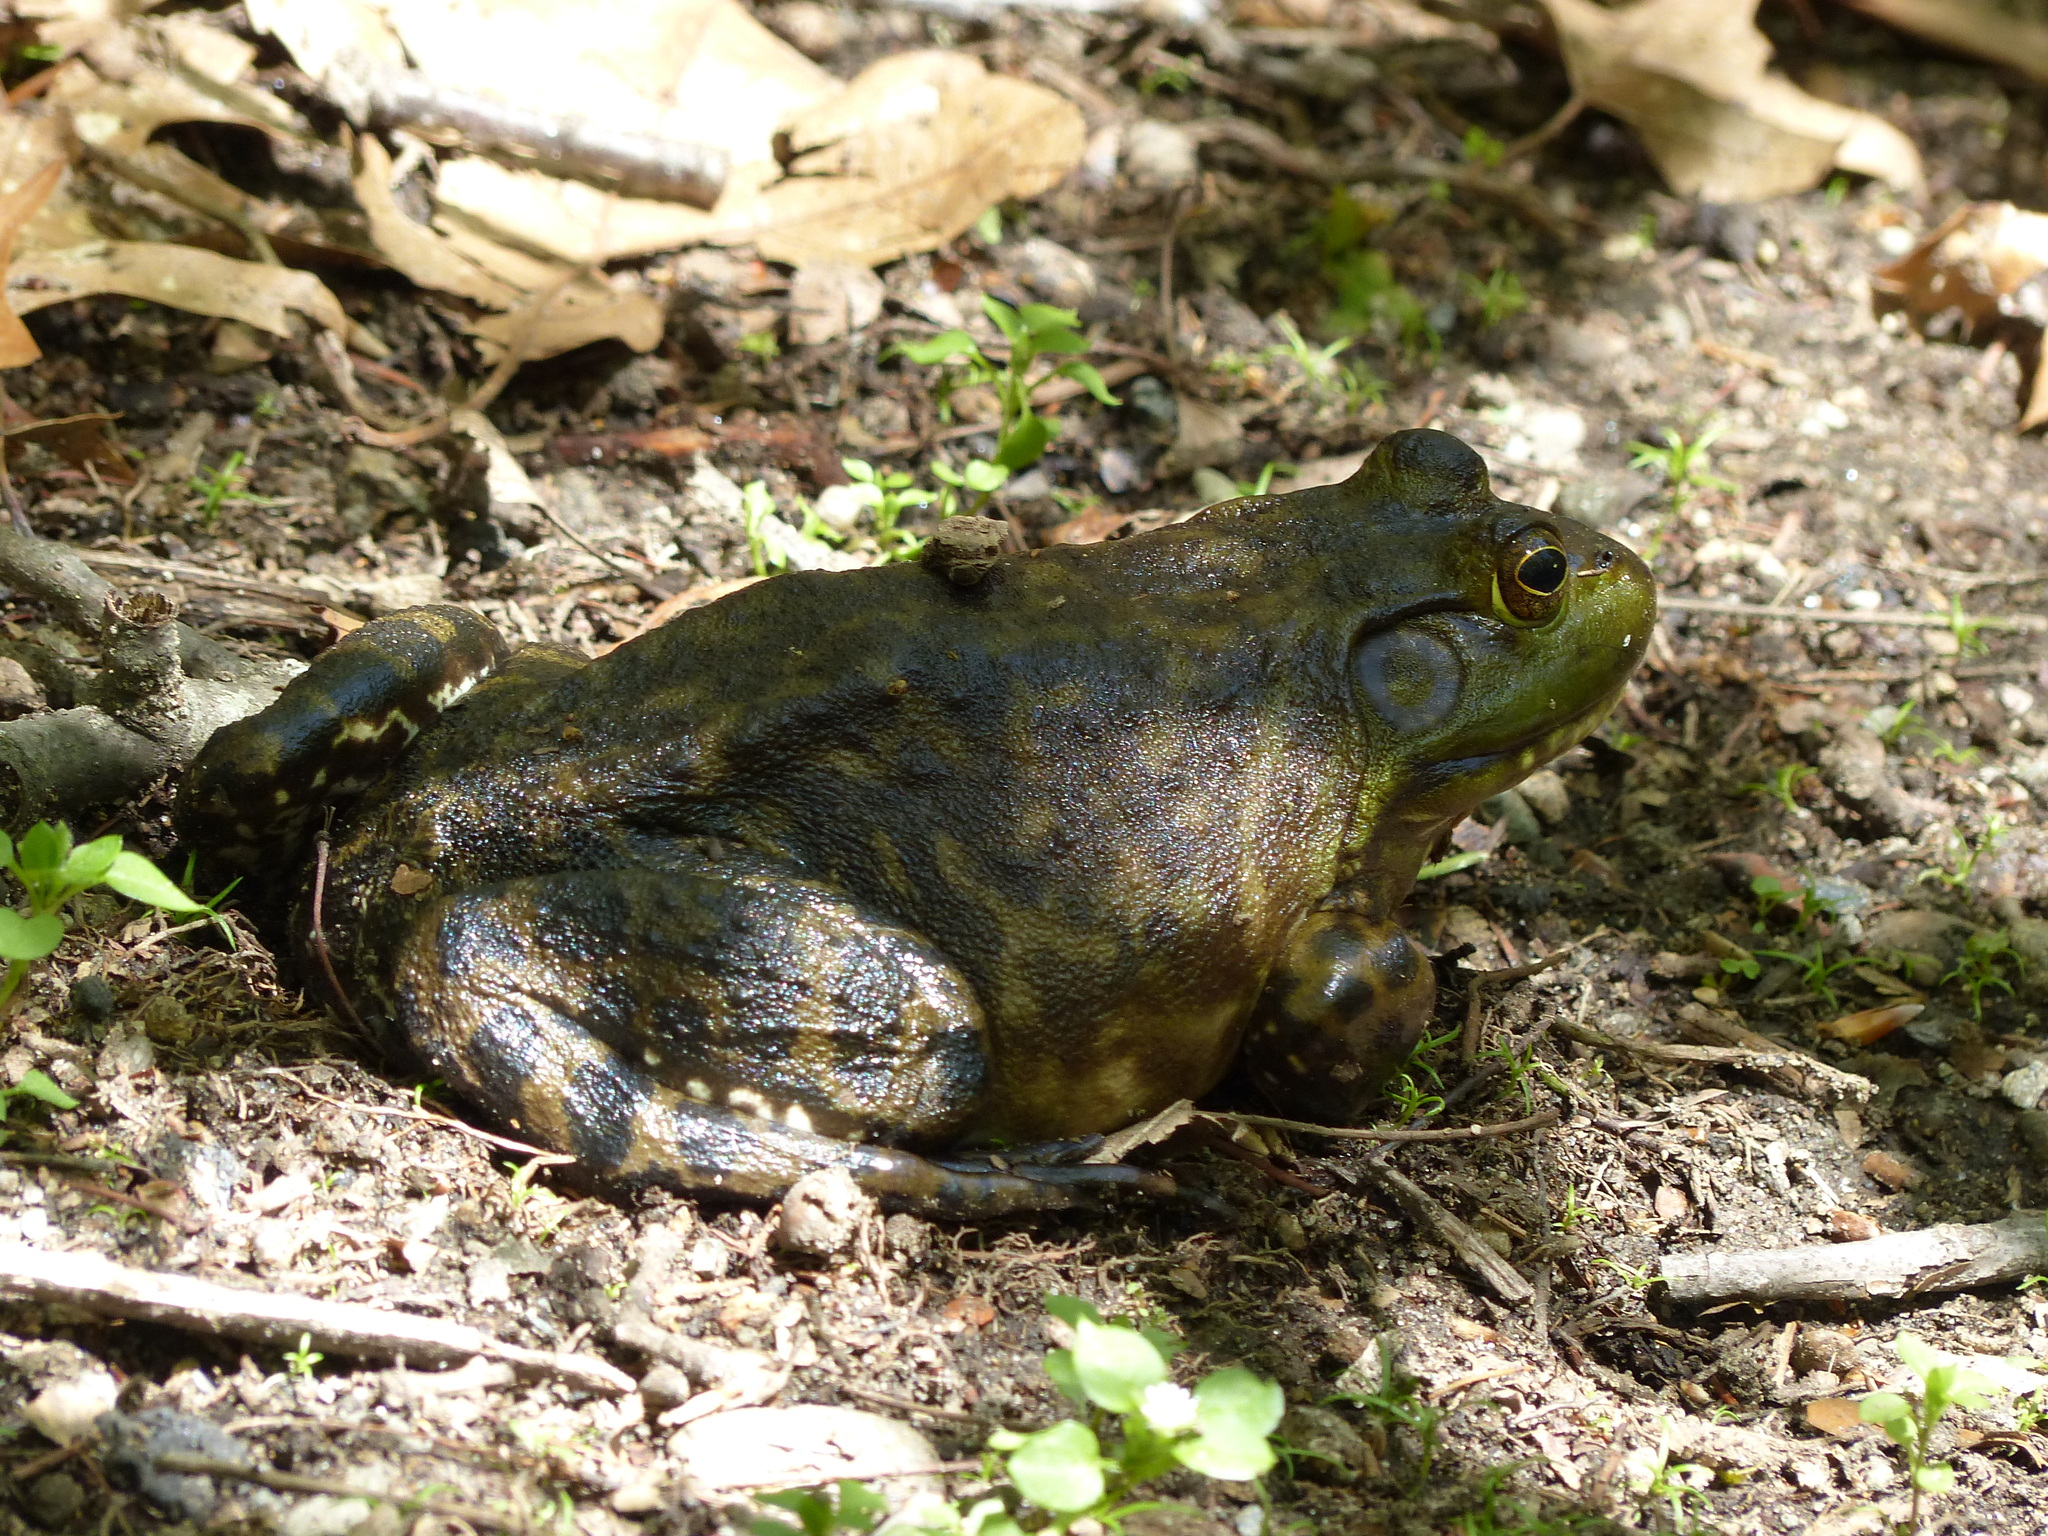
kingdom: Animalia
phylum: Chordata
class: Amphibia
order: Anura
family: Ranidae
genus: Lithobates
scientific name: Lithobates catesbeianus
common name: American bullfrog
